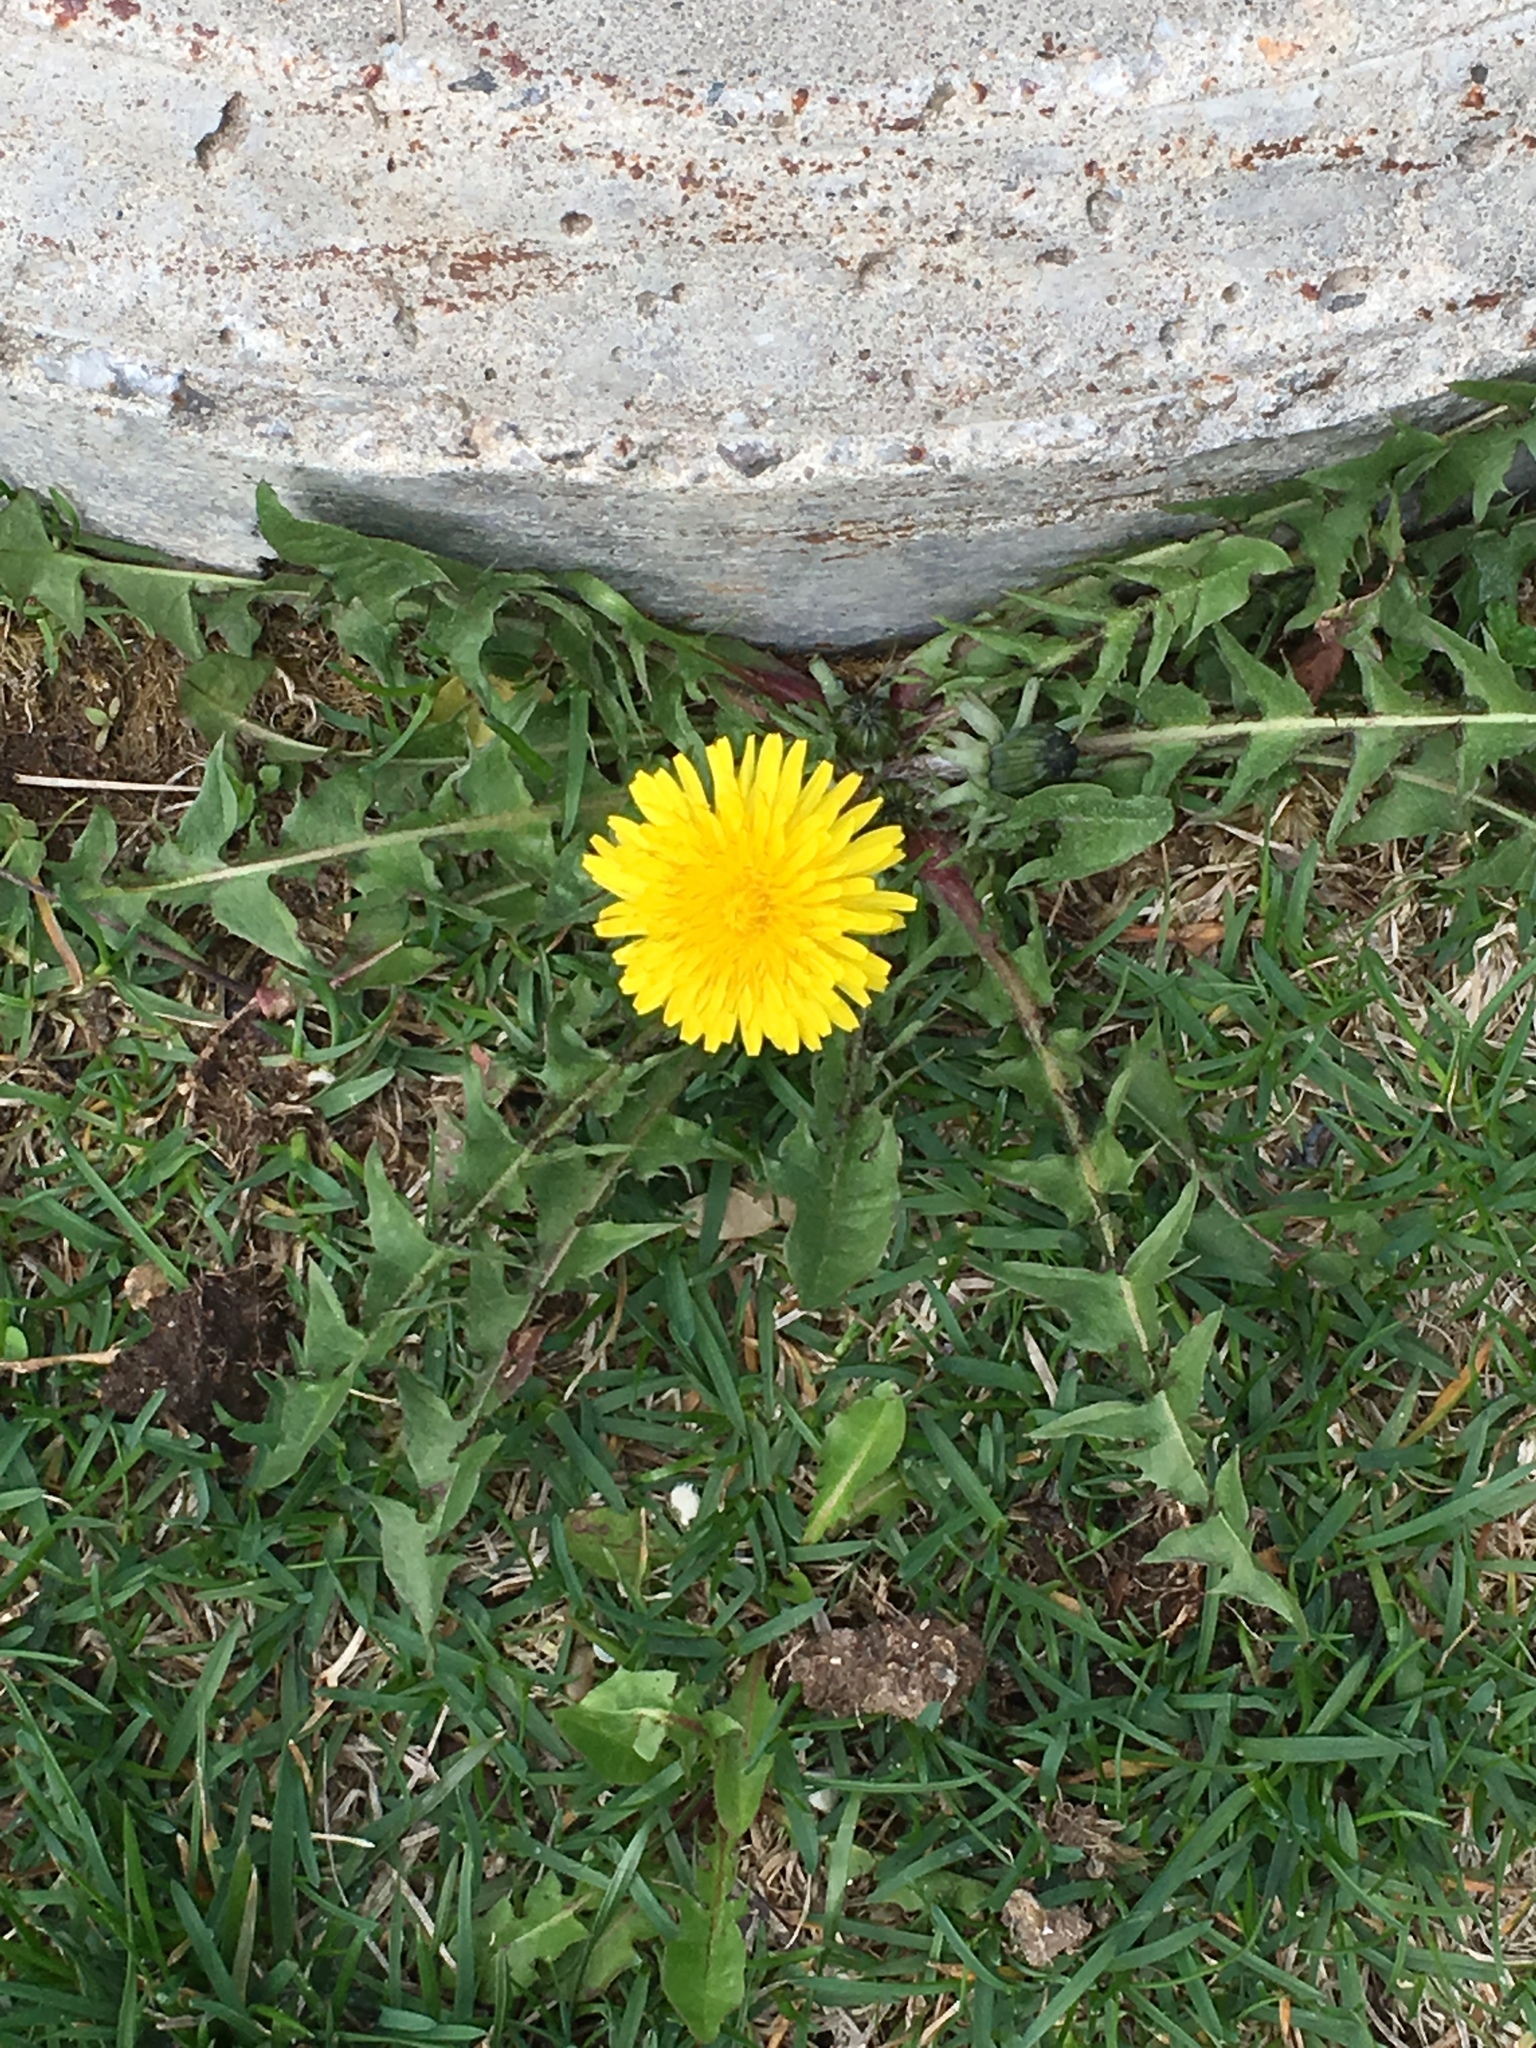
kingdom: Plantae
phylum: Tracheophyta
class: Magnoliopsida
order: Asterales
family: Asteraceae
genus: Taraxacum
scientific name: Taraxacum officinale
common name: Common dandelion
